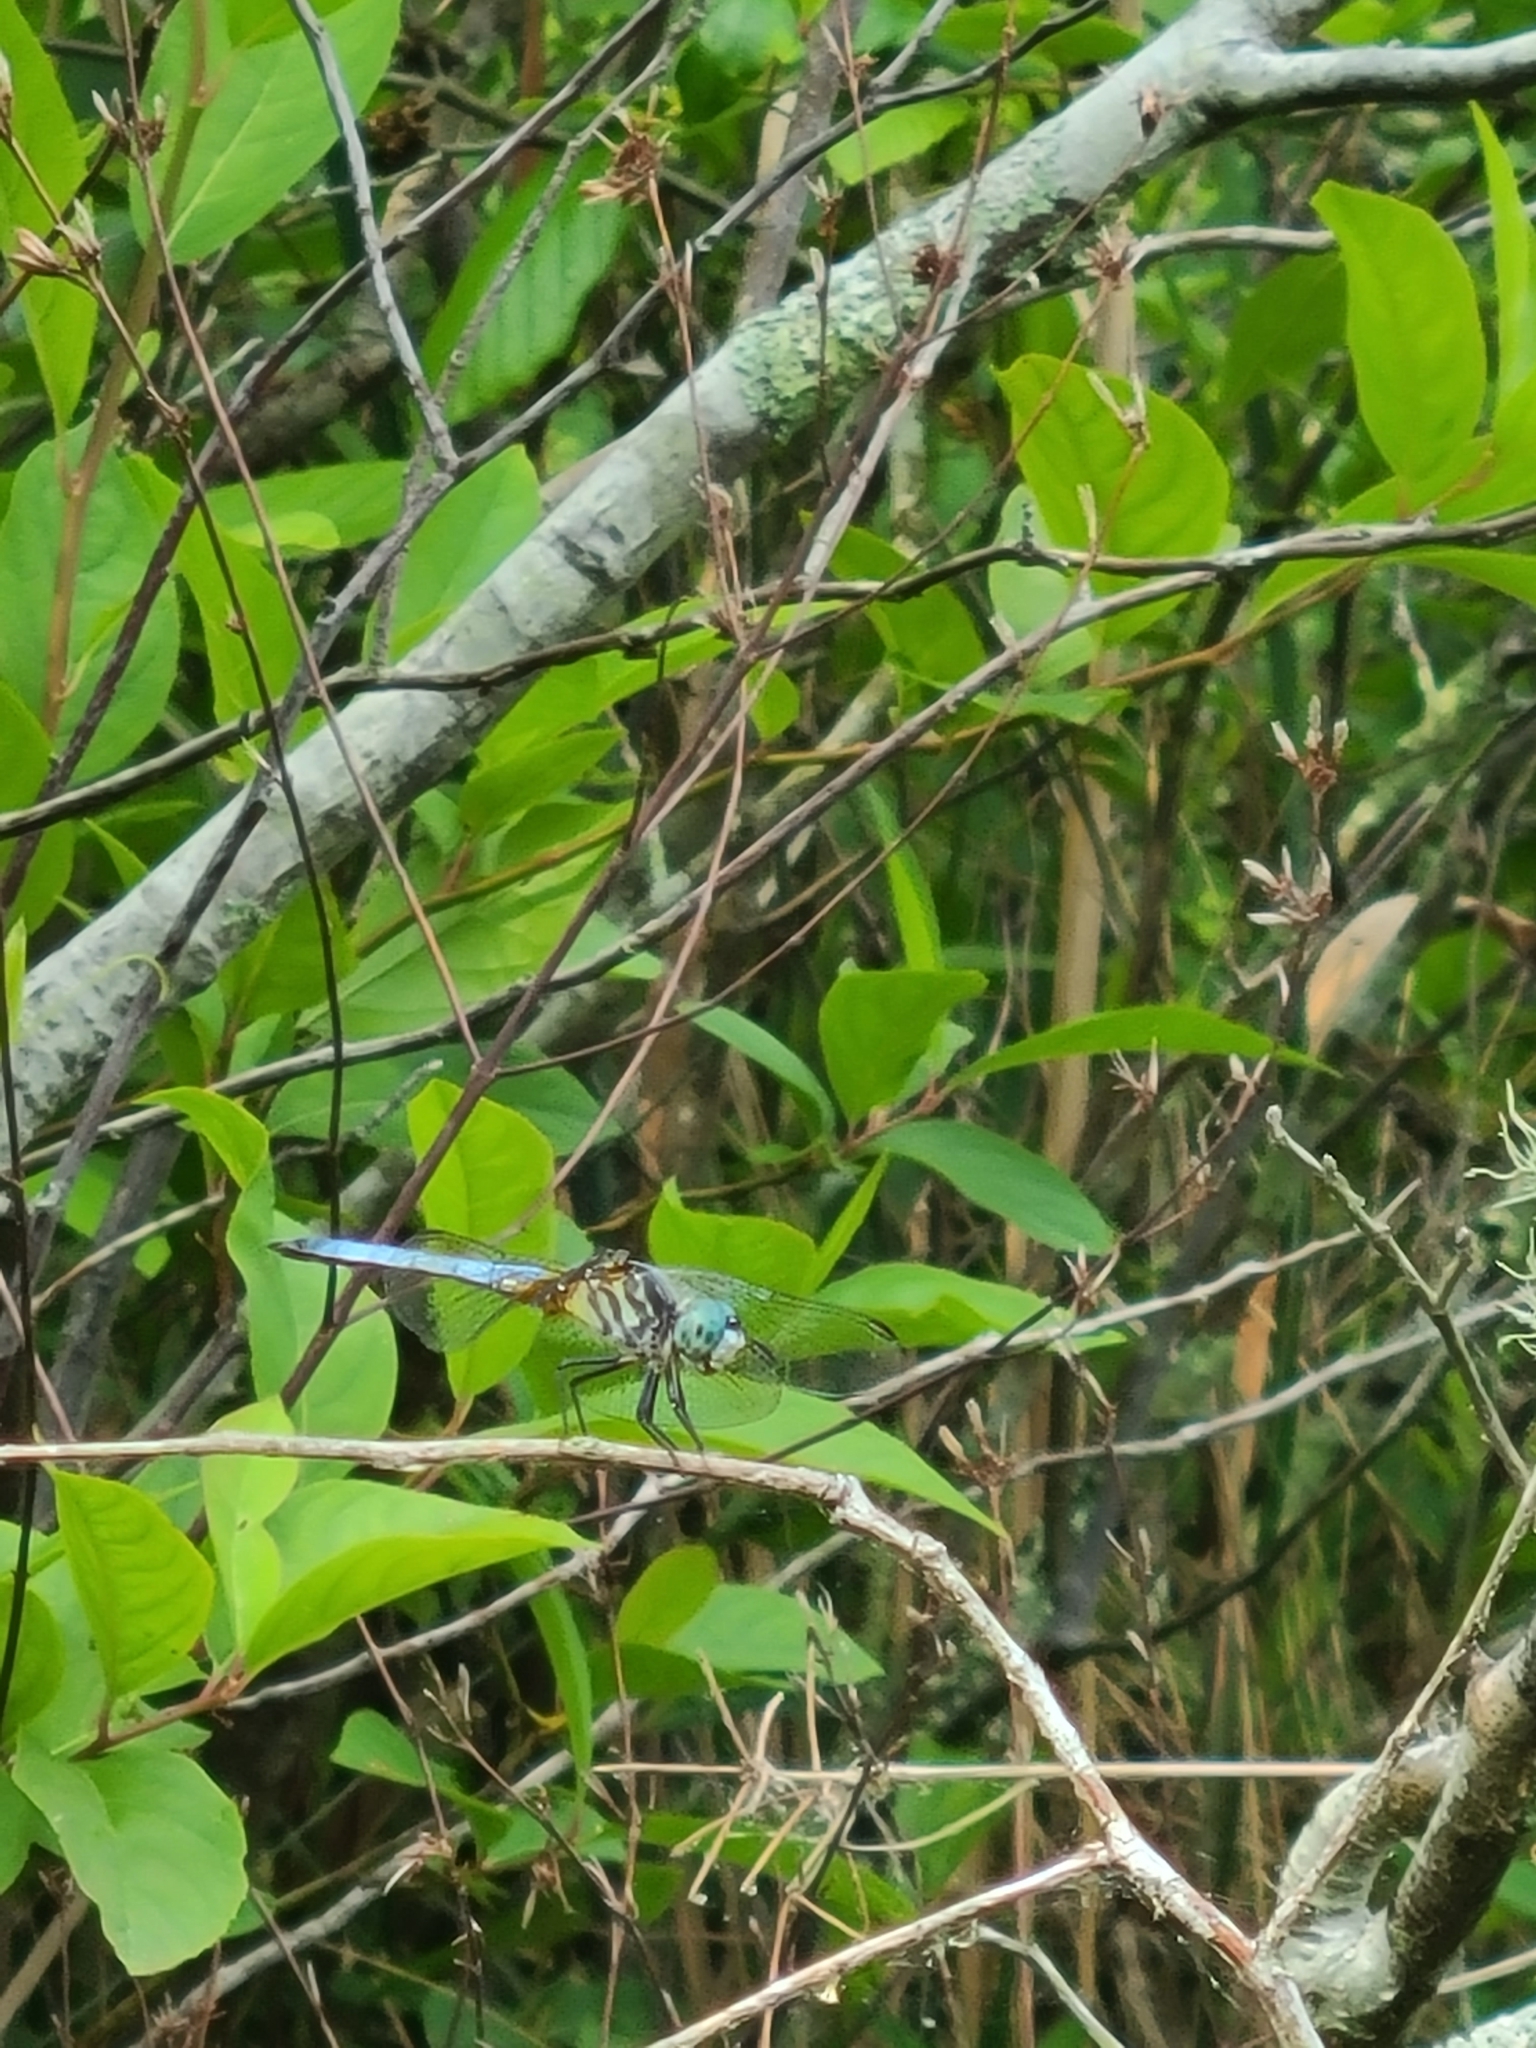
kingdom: Animalia
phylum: Arthropoda
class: Insecta
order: Odonata
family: Libellulidae
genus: Pachydiplax
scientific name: Pachydiplax longipennis
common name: Blue dasher
